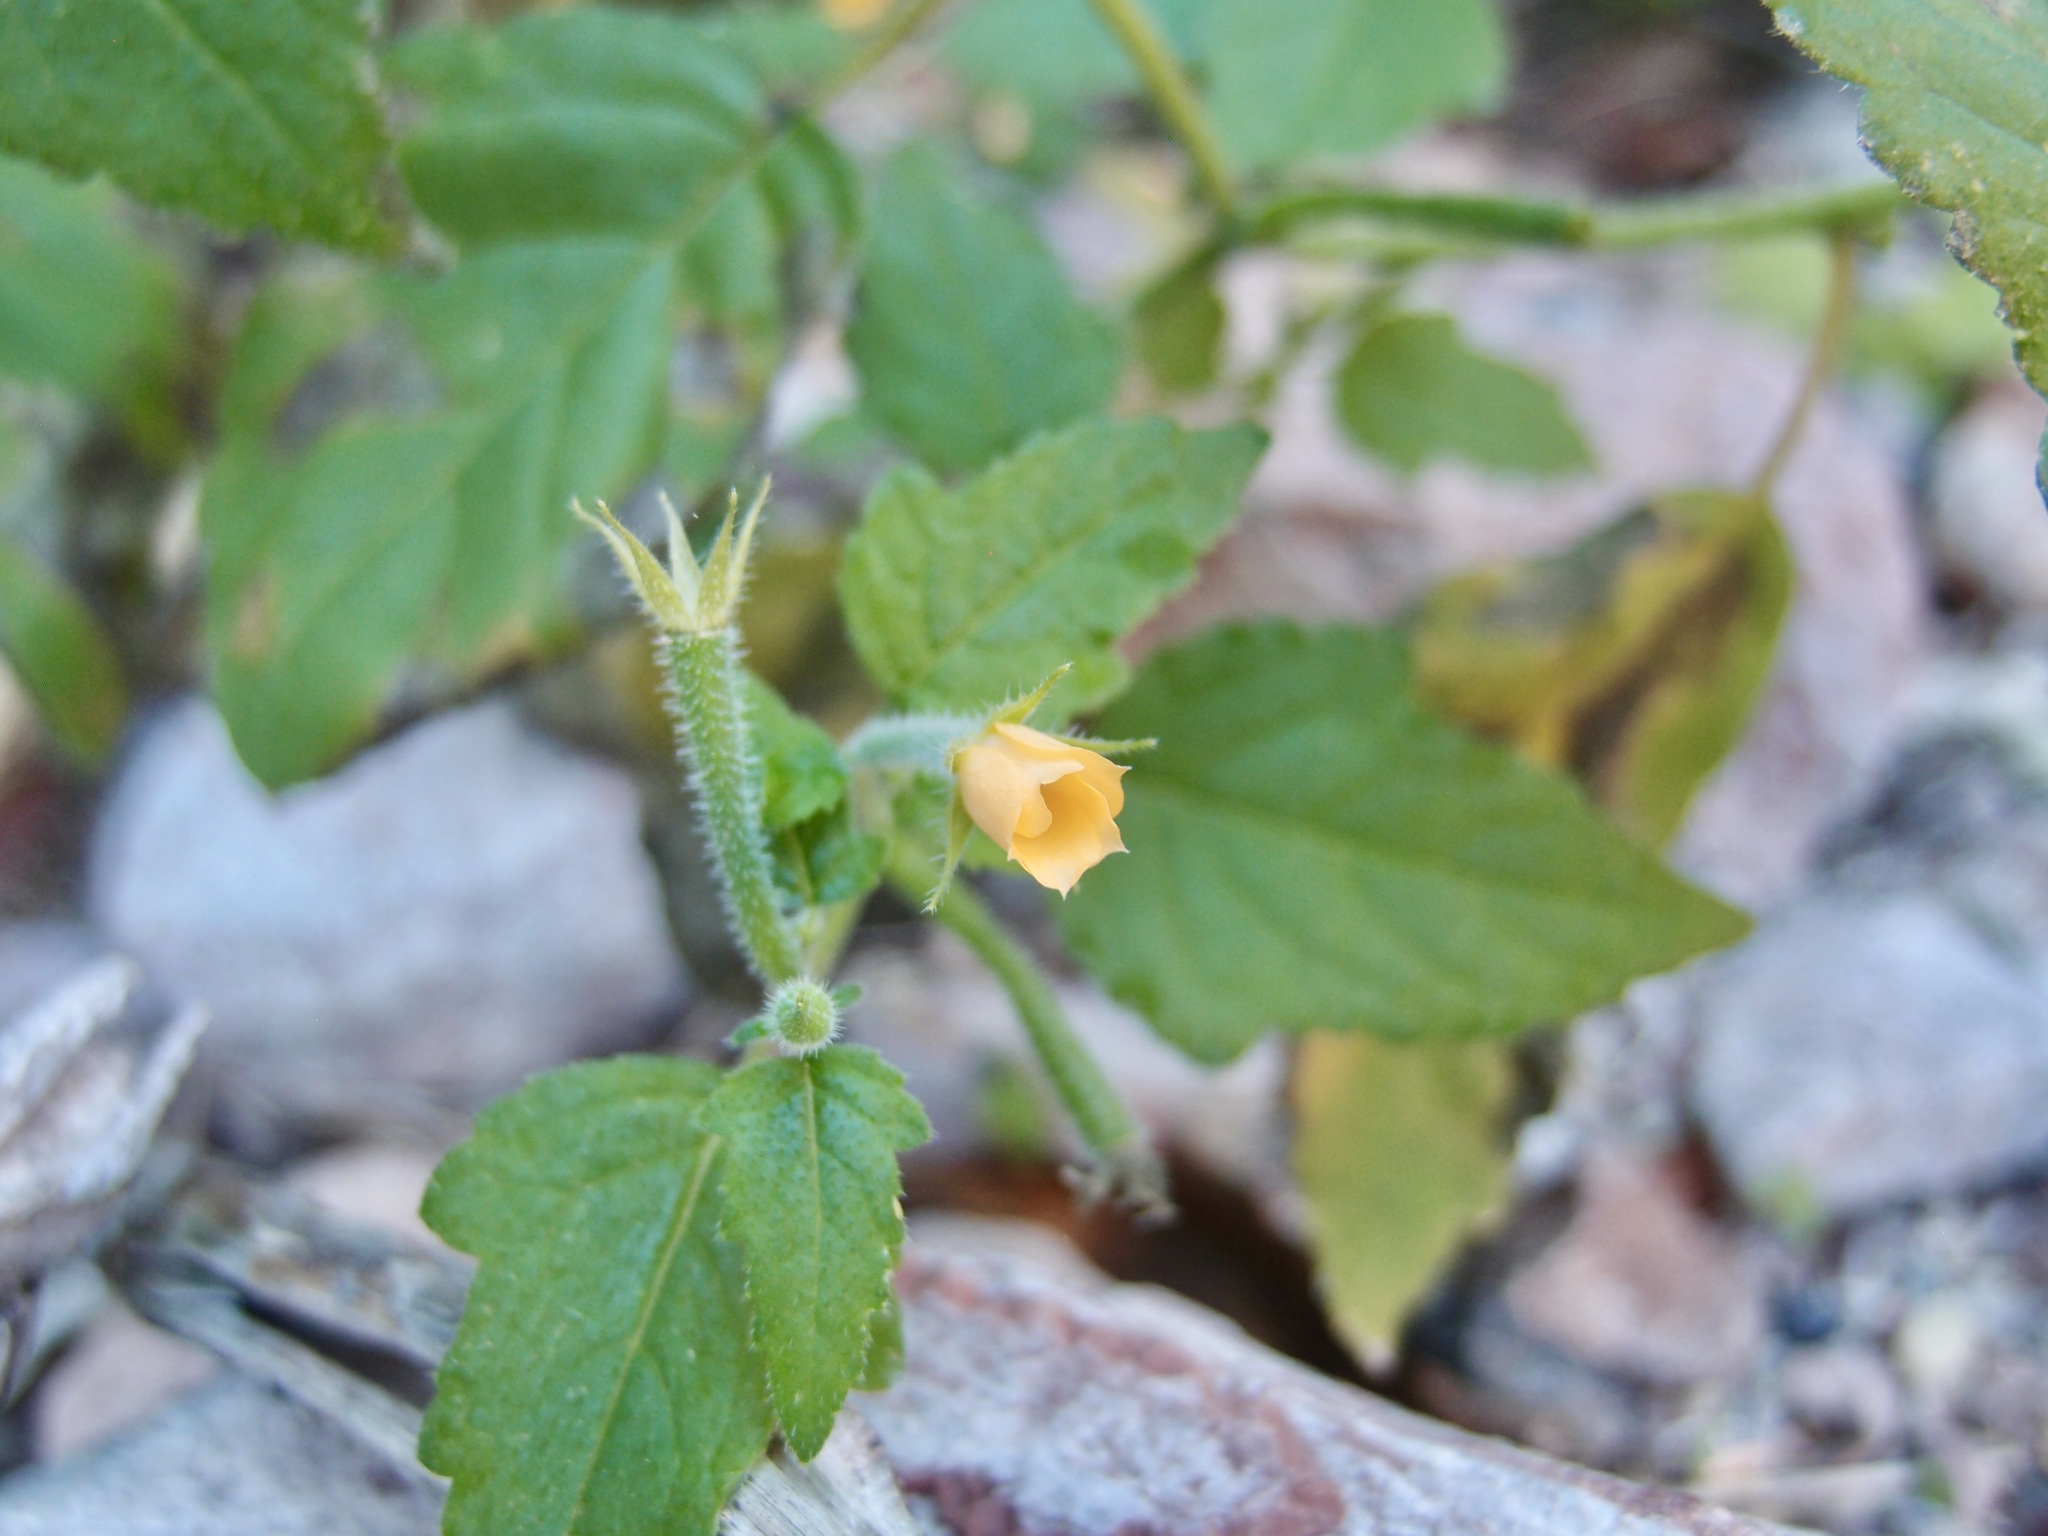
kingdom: Plantae
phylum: Tracheophyta
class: Magnoliopsida
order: Cornales
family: Loasaceae
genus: Mentzelia
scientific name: Mentzelia aspera
